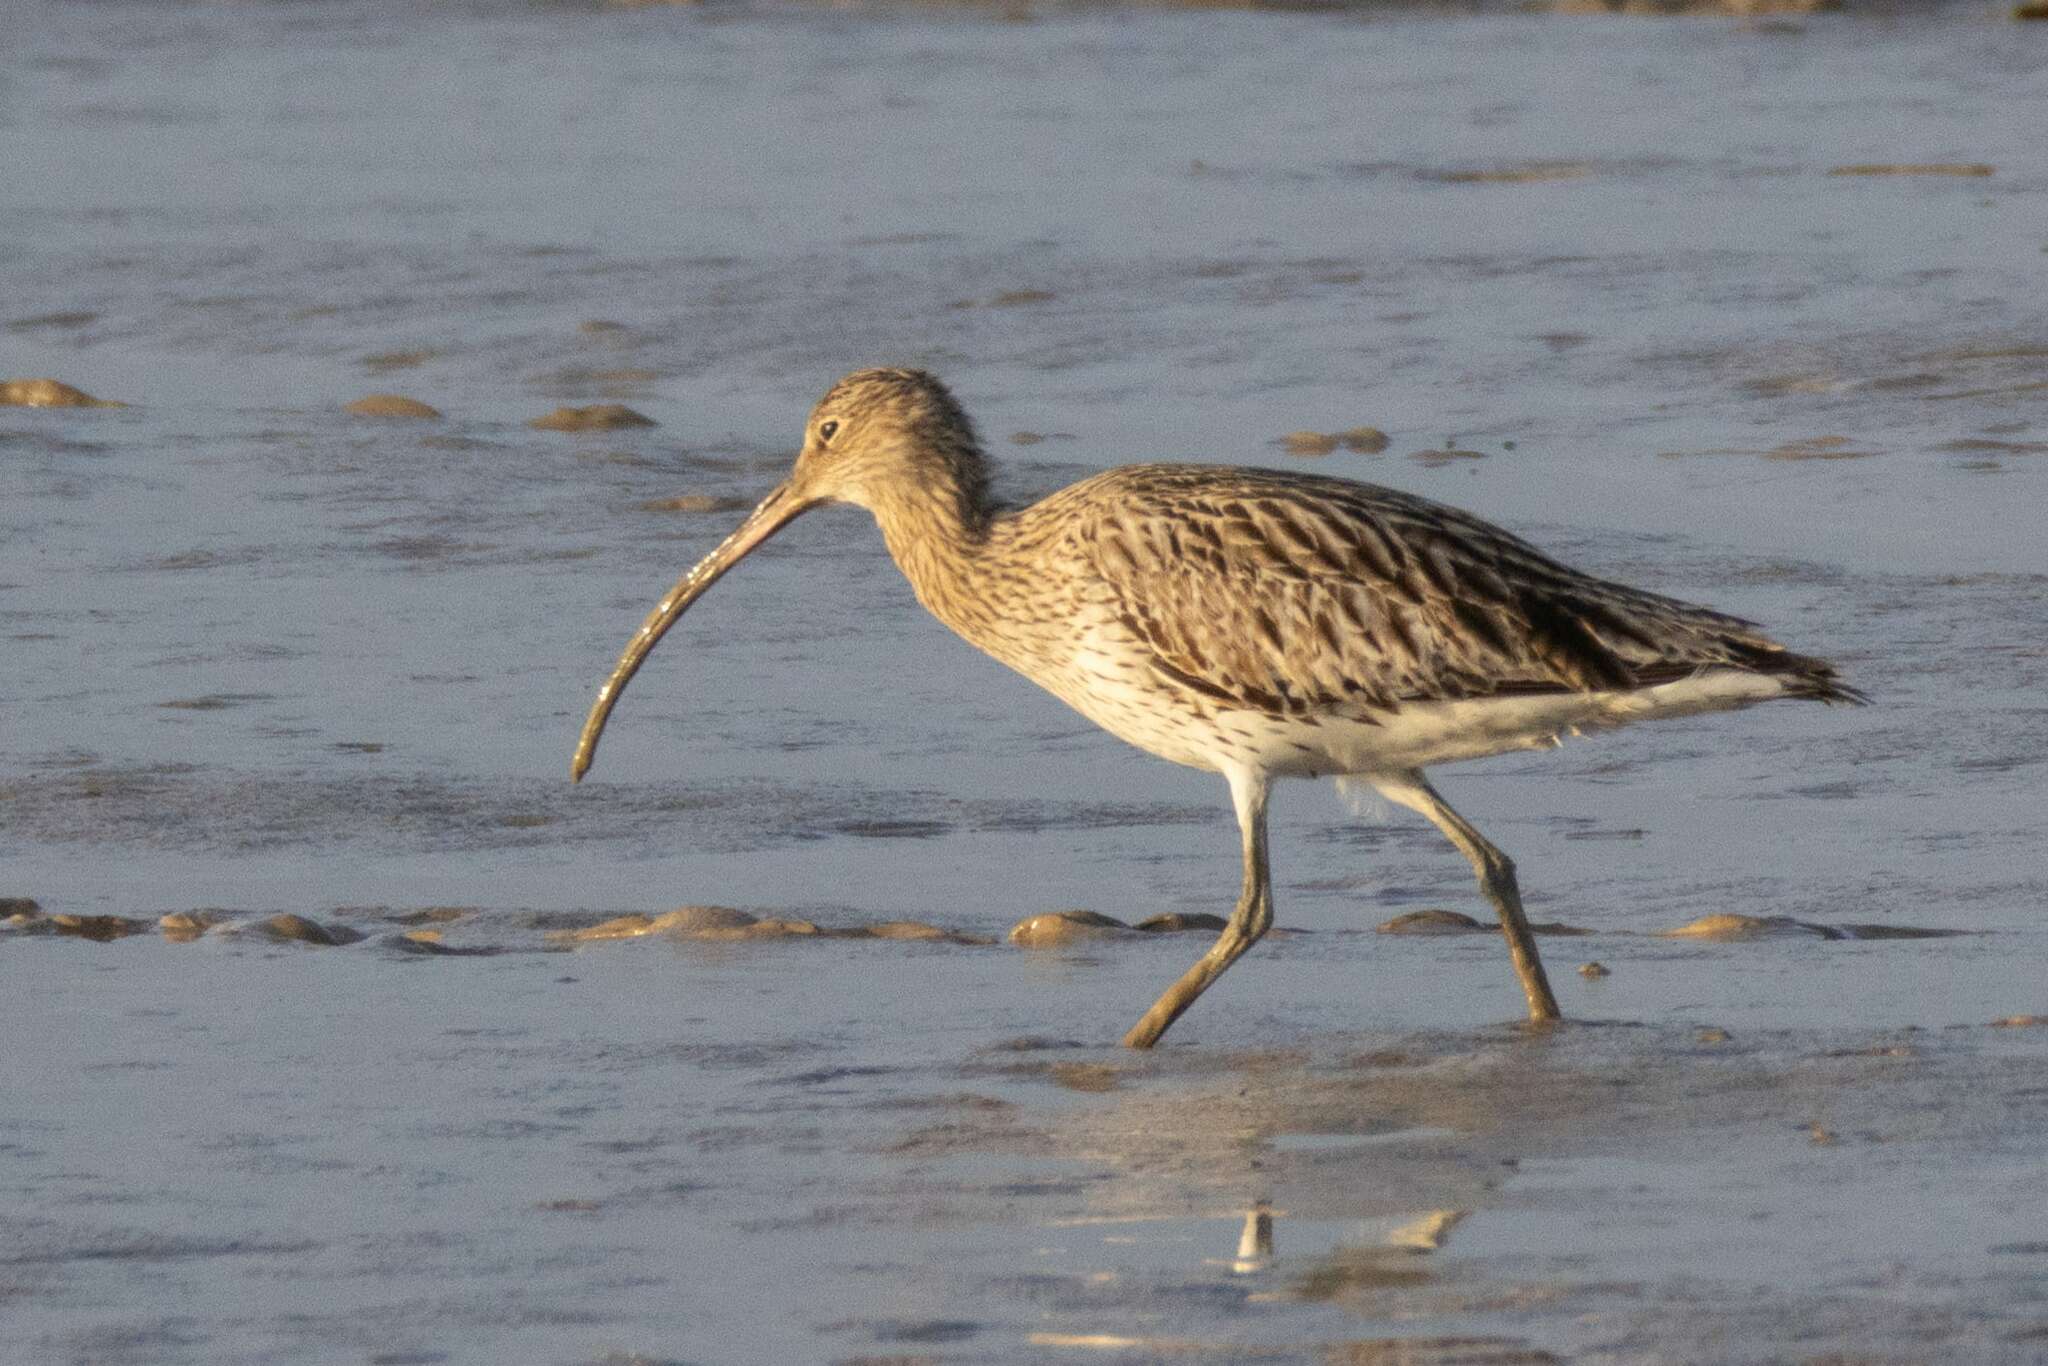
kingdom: Animalia
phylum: Chordata
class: Aves
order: Charadriiformes
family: Scolopacidae
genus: Numenius
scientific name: Numenius arquata
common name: Eurasian curlew
